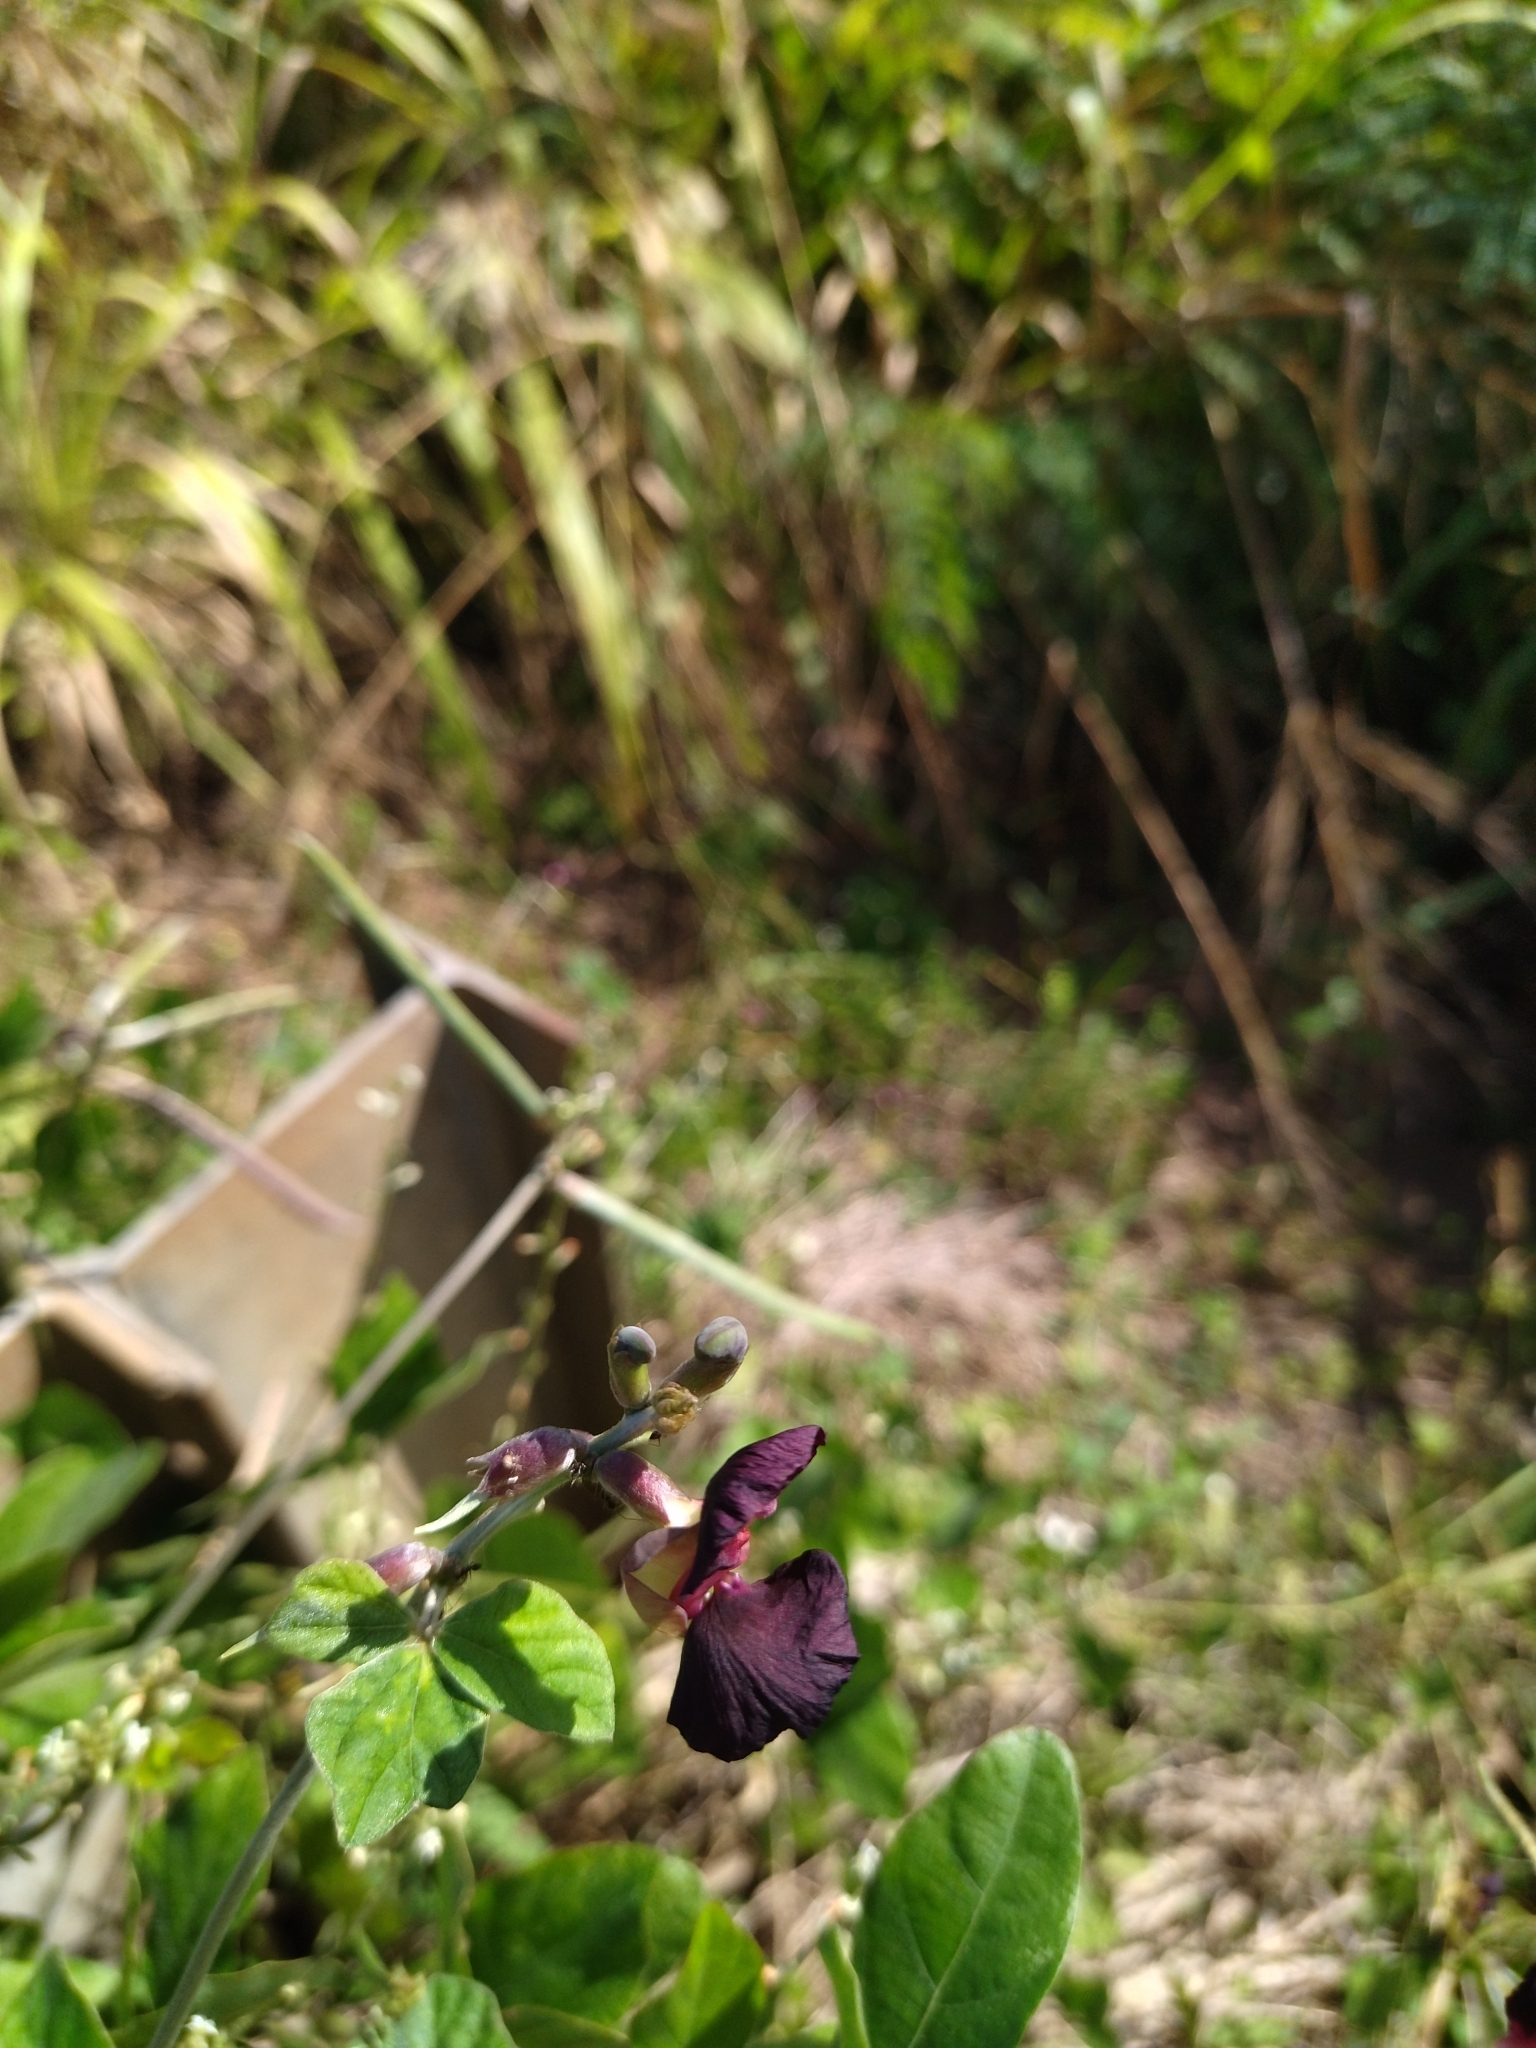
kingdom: Plantae
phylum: Tracheophyta
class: Magnoliopsida
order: Fabales
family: Fabaceae
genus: Macroptilium
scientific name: Macroptilium atropurpureum
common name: Purple bushbean
